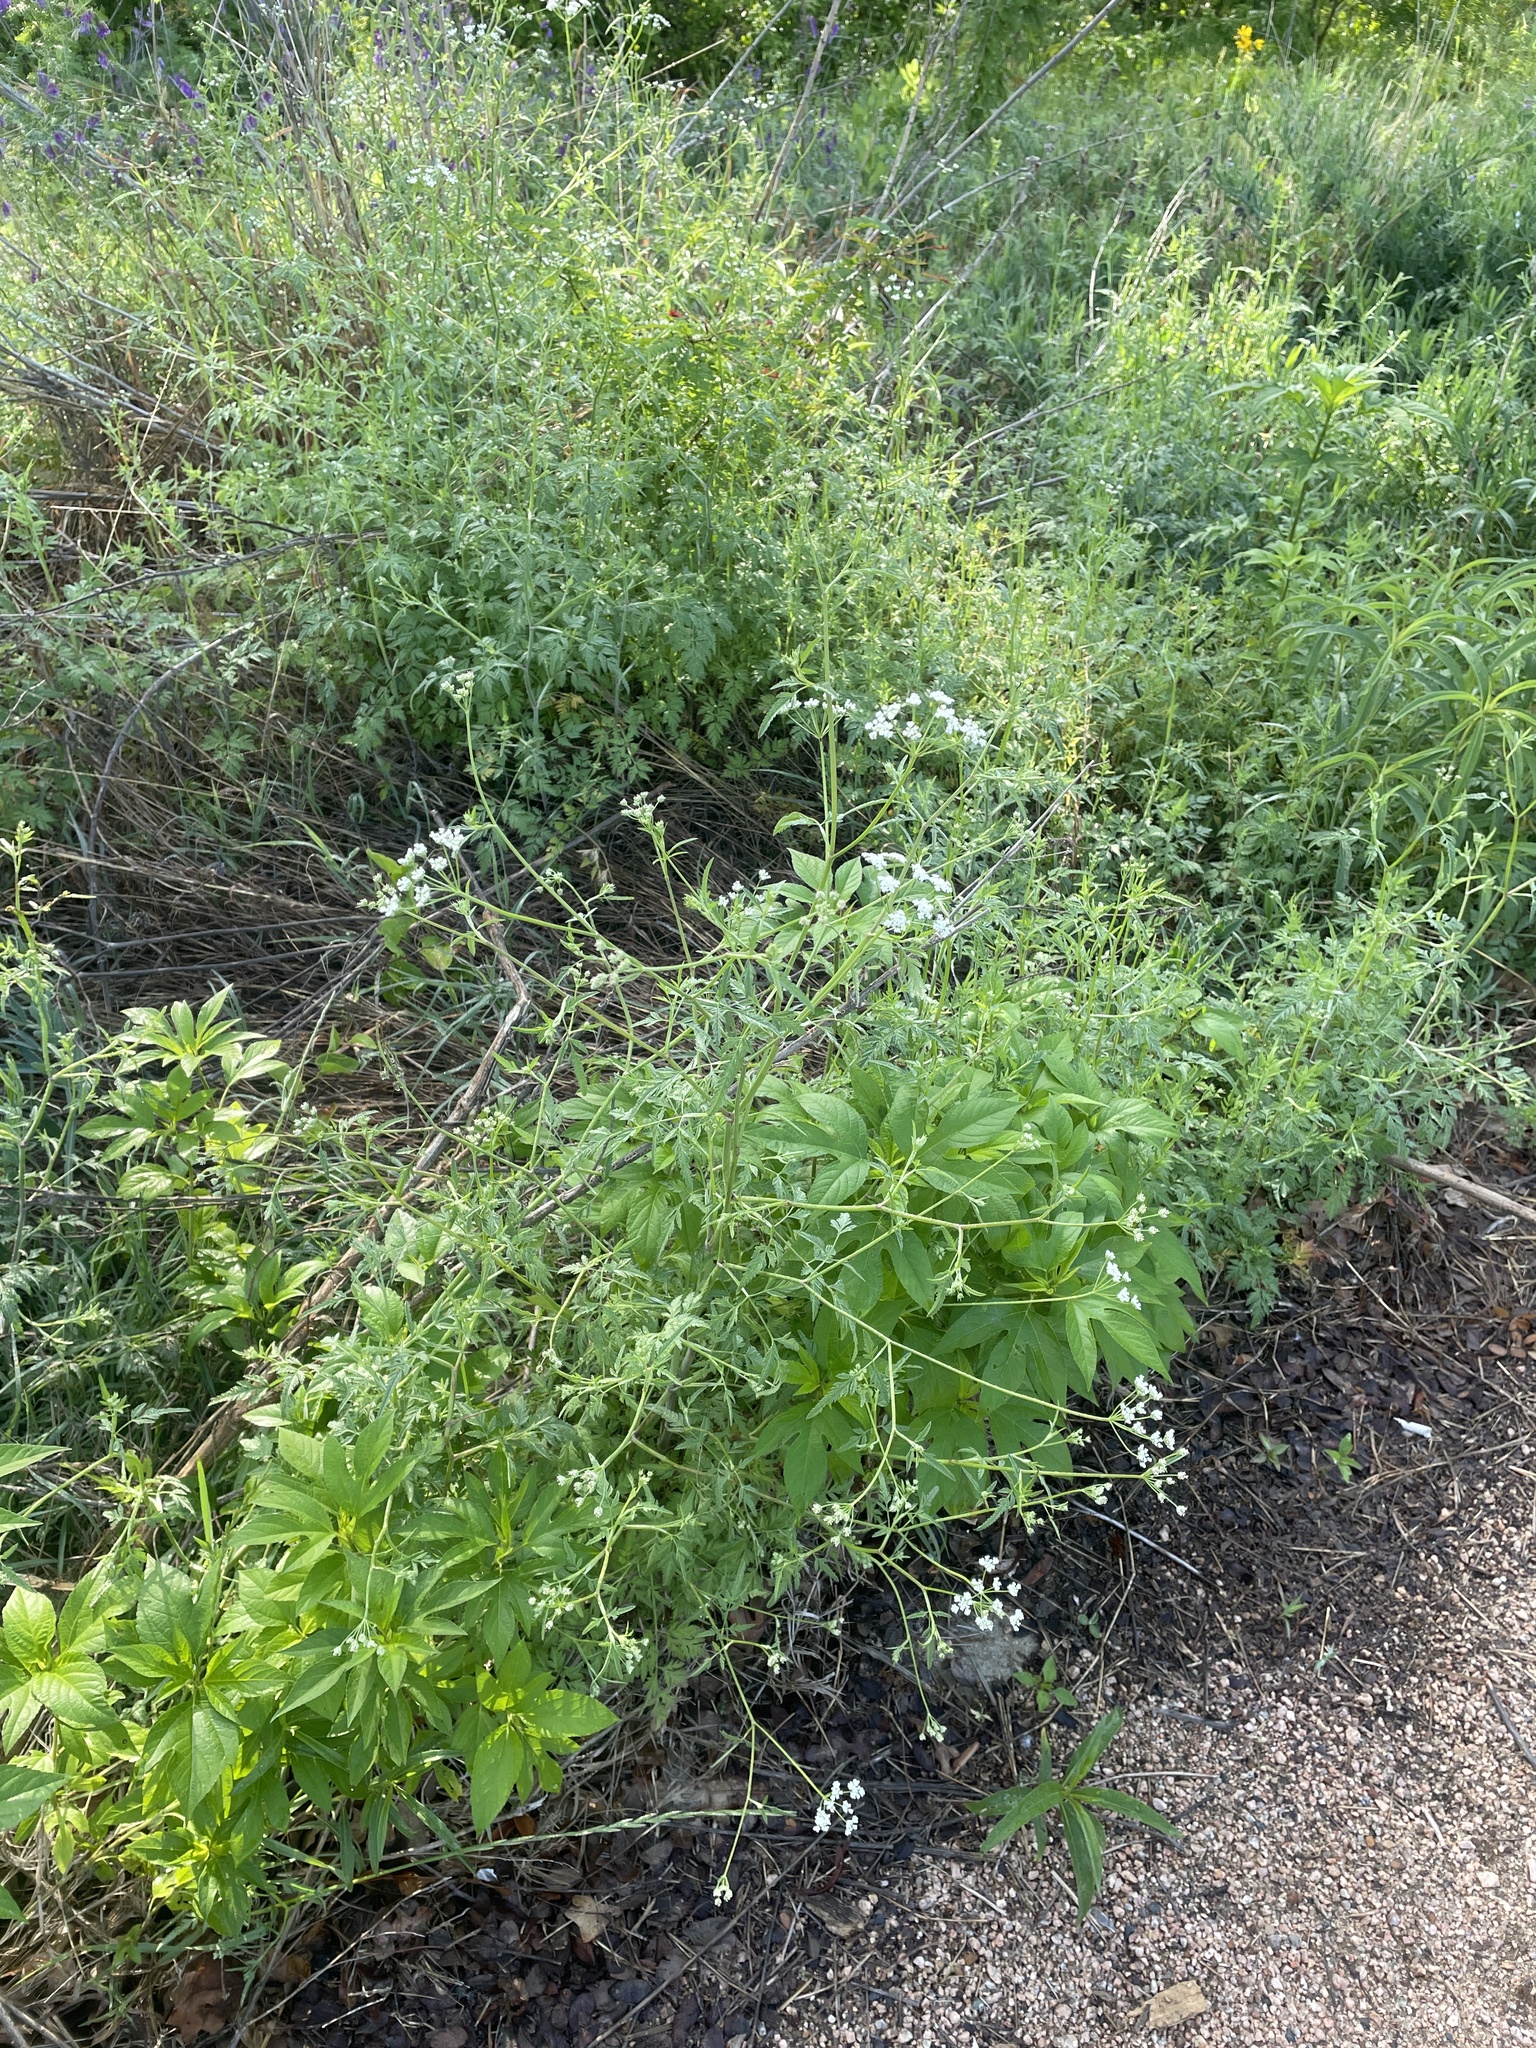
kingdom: Plantae
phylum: Tracheophyta
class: Magnoliopsida
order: Apiales
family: Apiaceae
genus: Torilis
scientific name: Torilis arvensis
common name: Spreading hedge-parsley
